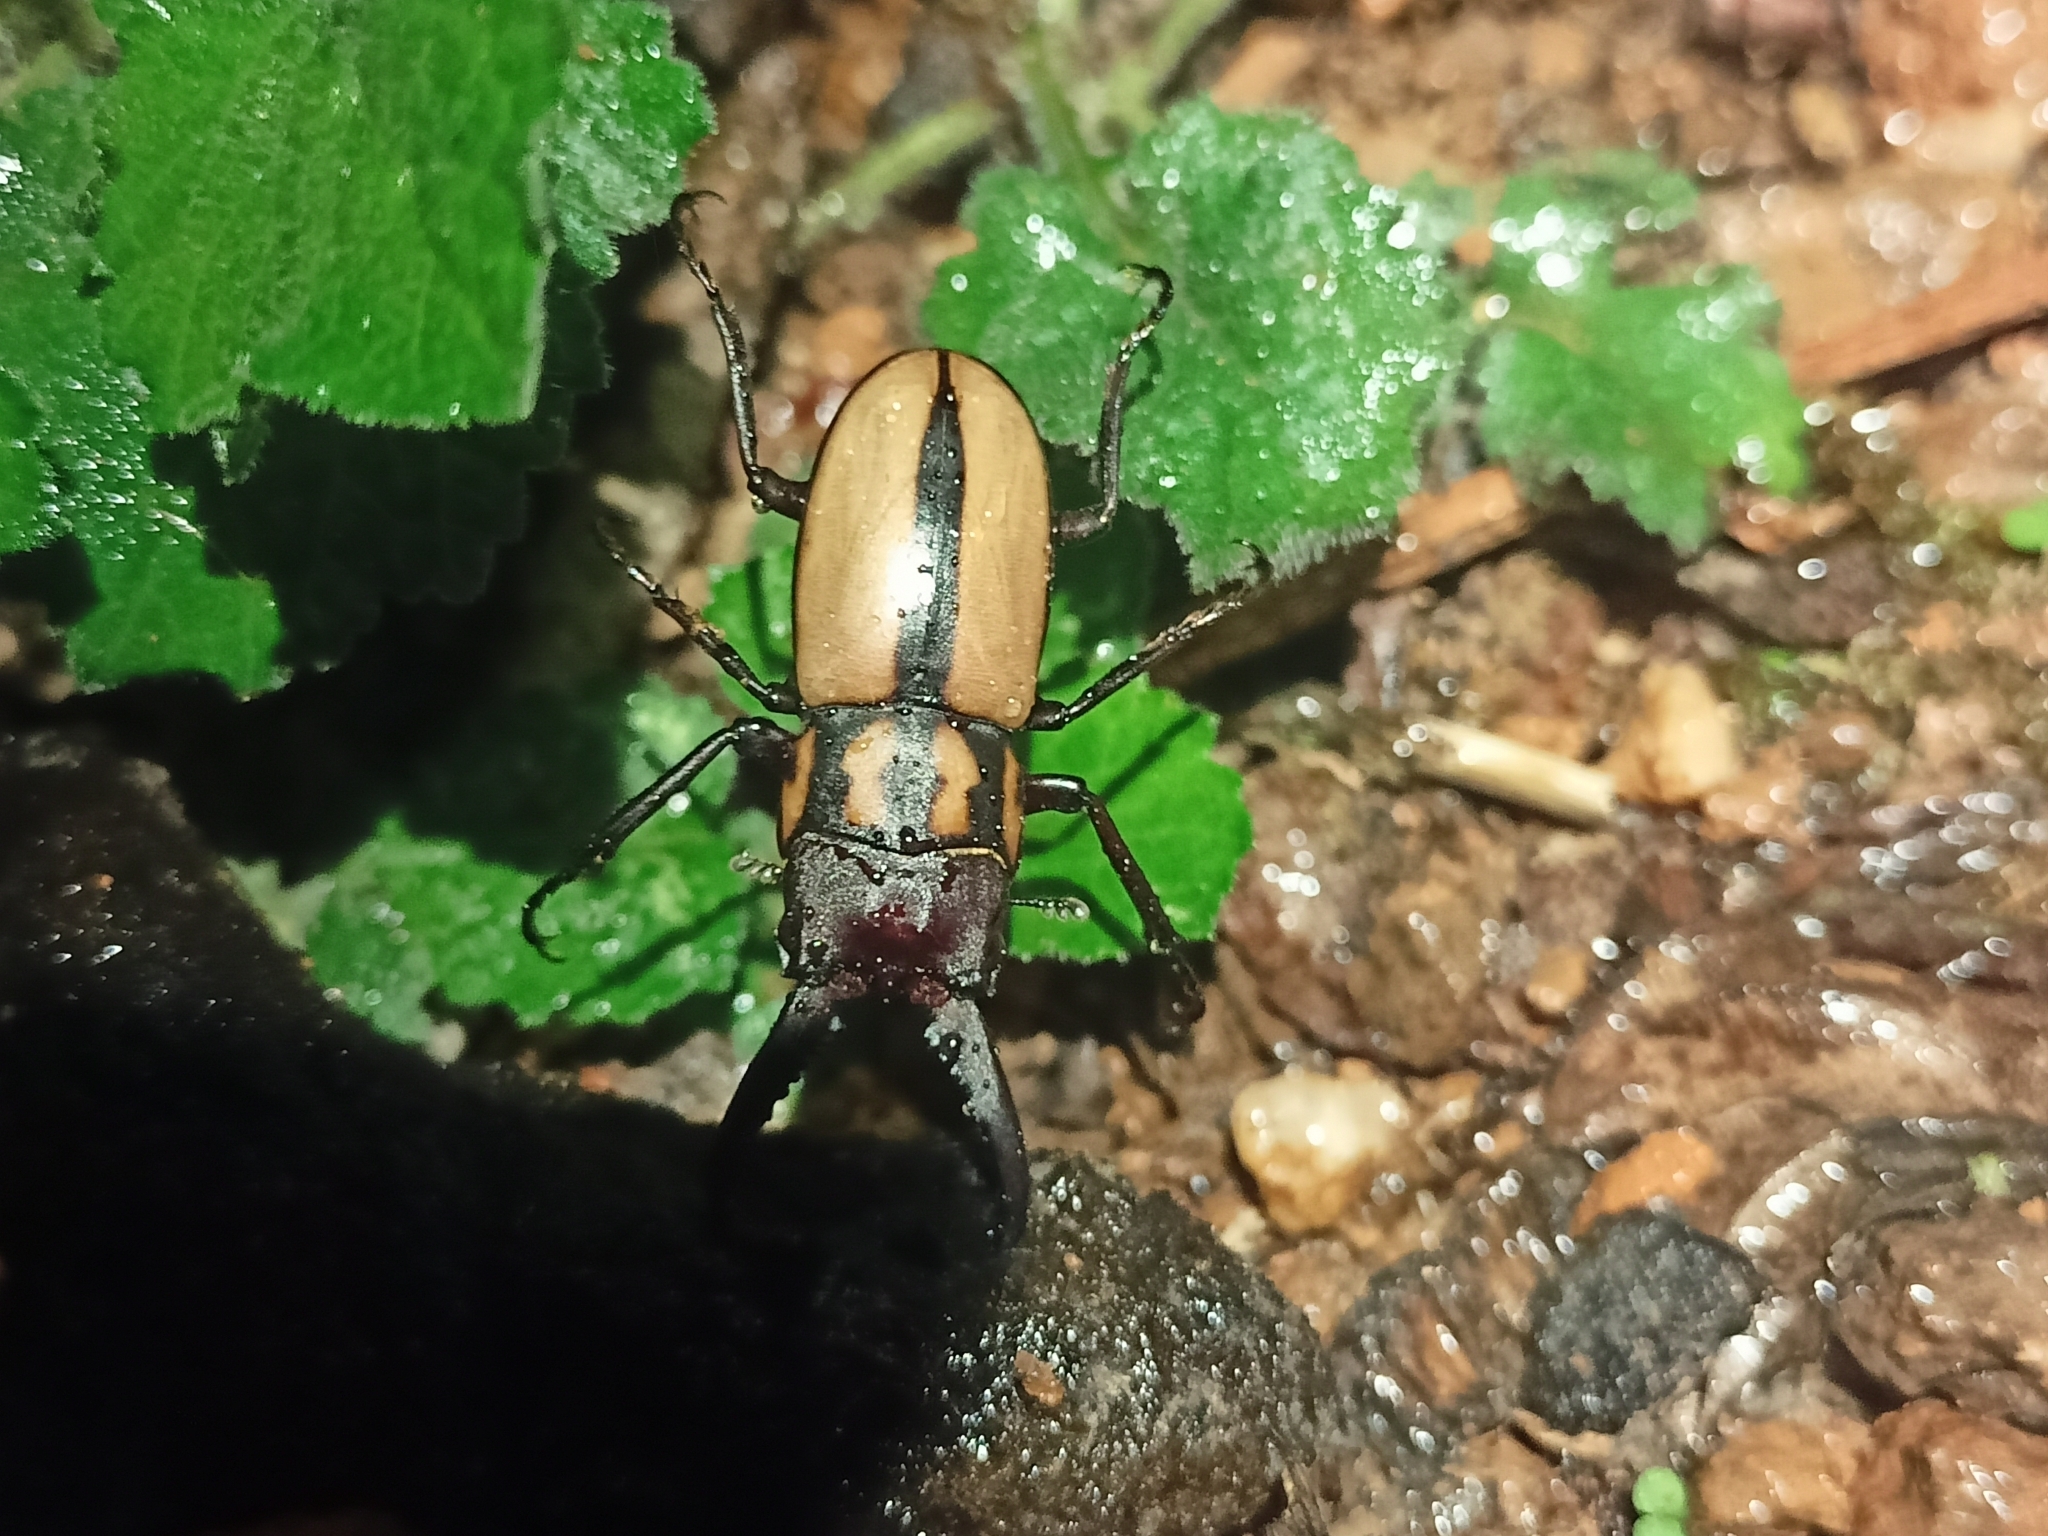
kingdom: Animalia
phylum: Arthropoda
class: Insecta
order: Coleoptera
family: Lucanidae
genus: Prosopocoilus
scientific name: Prosopocoilus histrio
